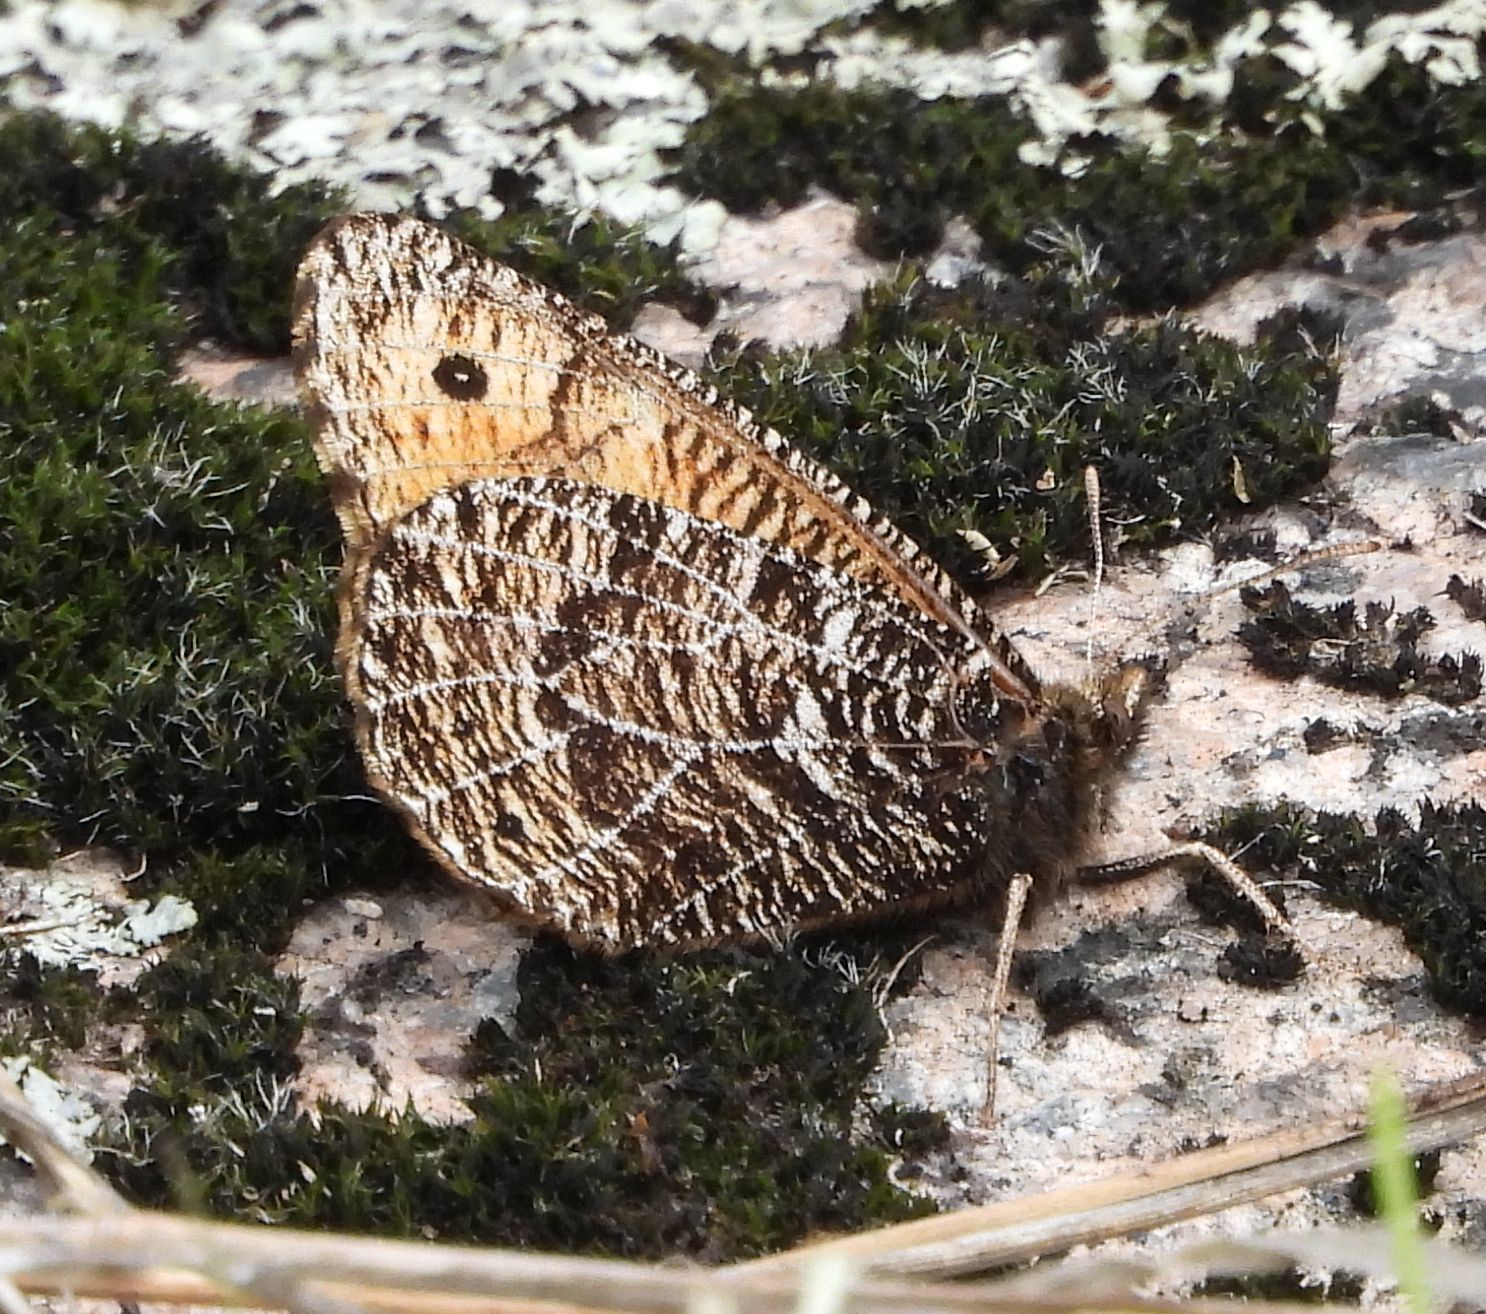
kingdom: Animalia
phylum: Arthropoda
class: Insecta
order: Lepidoptera
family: Nymphalidae
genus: Oeneis
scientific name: Oeneis chryxus
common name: Chryxus arctic
